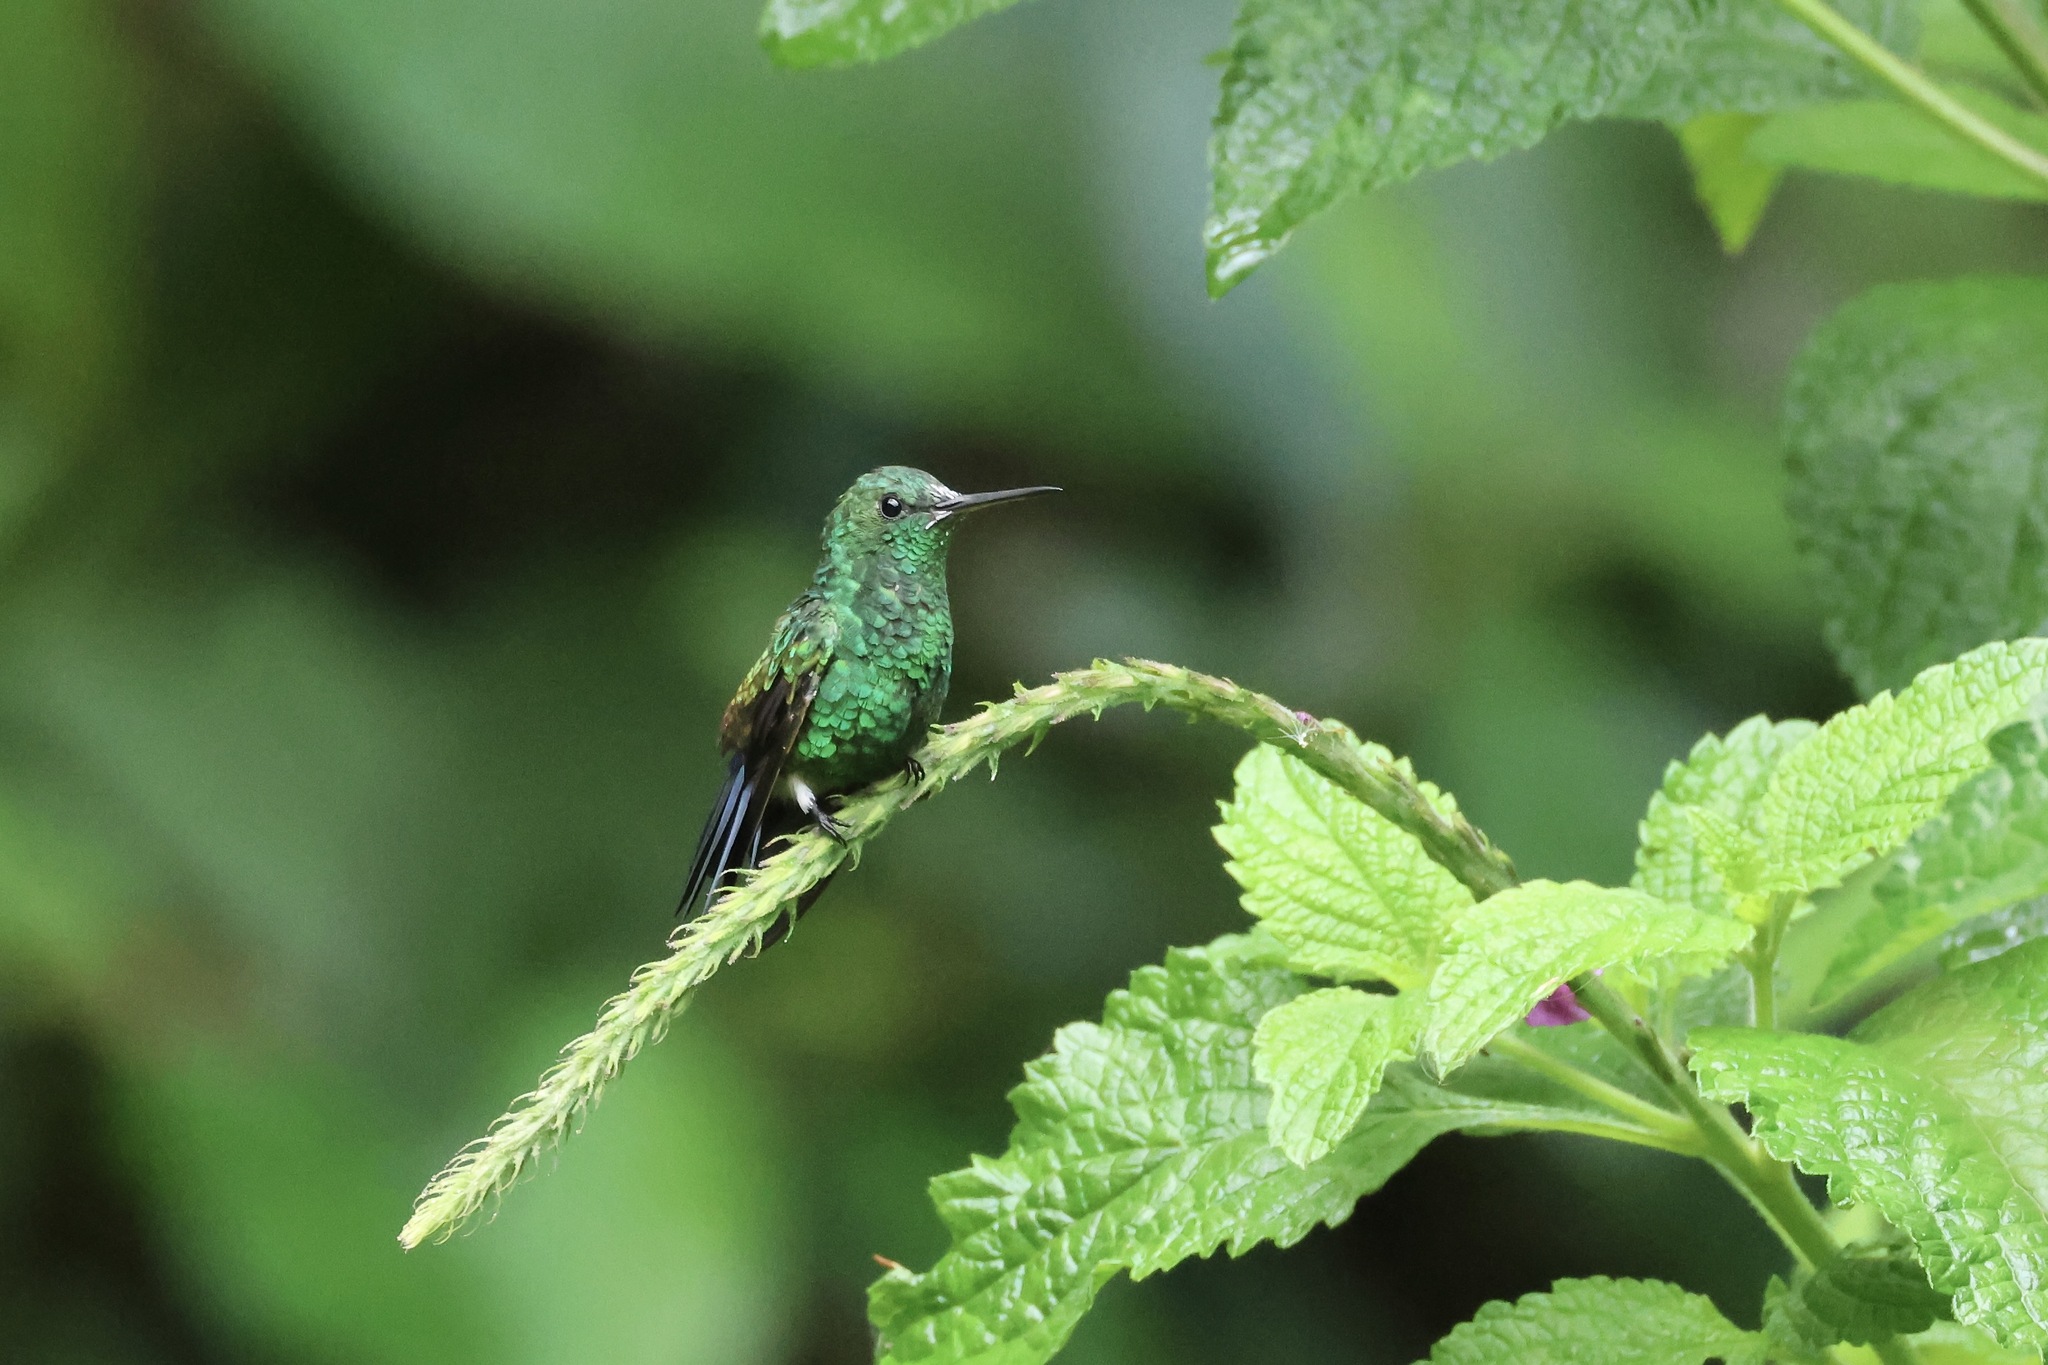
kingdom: Animalia
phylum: Chordata
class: Aves
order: Apodiformes
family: Trochilidae
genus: Saucerottia
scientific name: Saucerottia hoffmanni
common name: Blue-vented hummingbird
